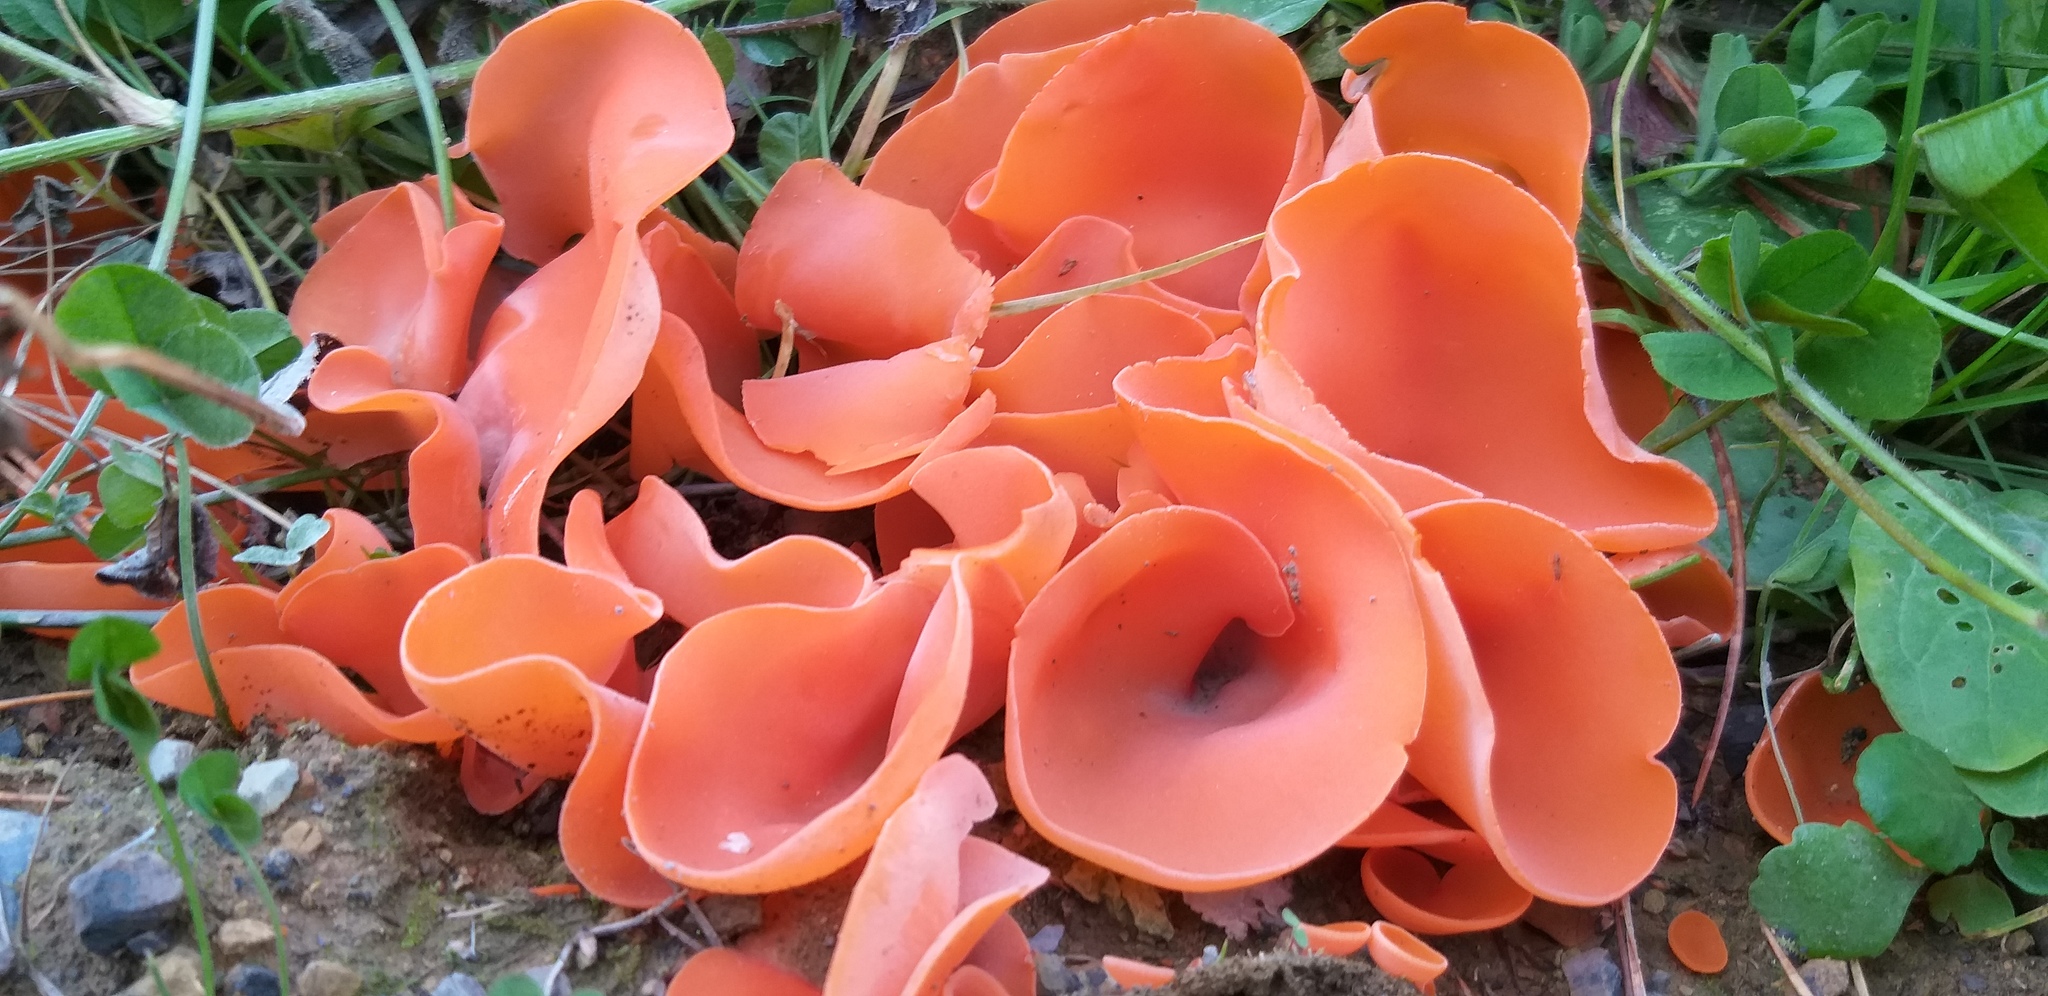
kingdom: Fungi
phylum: Ascomycota
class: Pezizomycetes
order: Pezizales
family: Pyronemataceae
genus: Aleuria
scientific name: Aleuria aurantia
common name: Orange peel fungus
